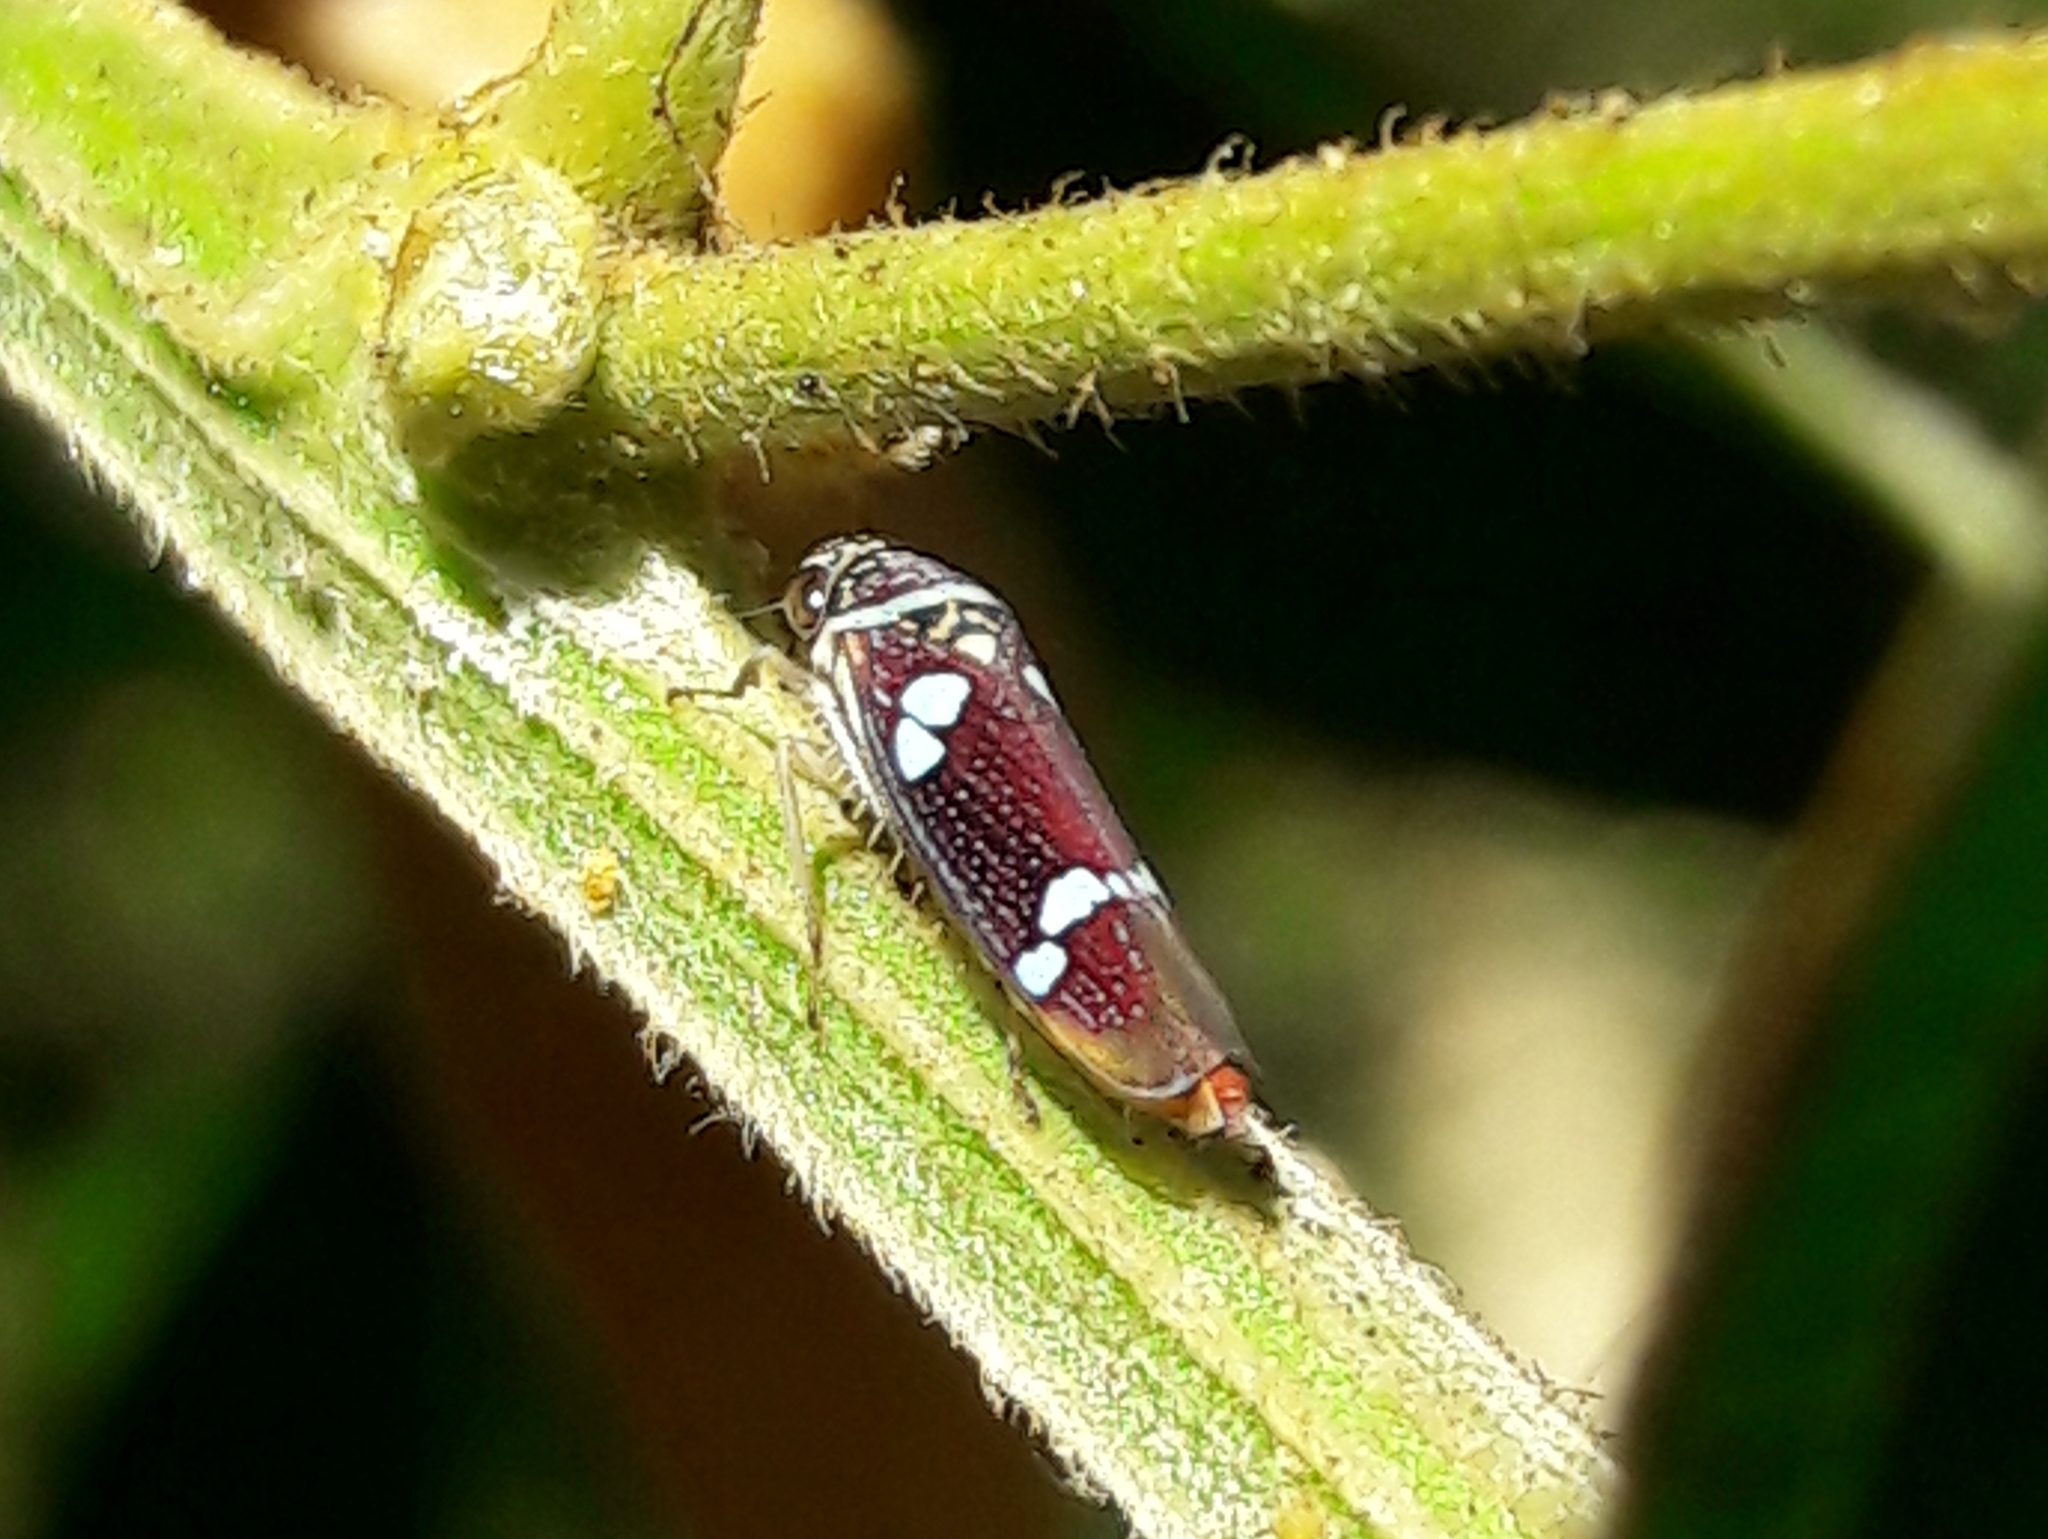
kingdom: Animalia
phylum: Arthropoda
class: Insecta
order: Hemiptera
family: Cicadellidae
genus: Macugonalia
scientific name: Macugonalia leucomelas
